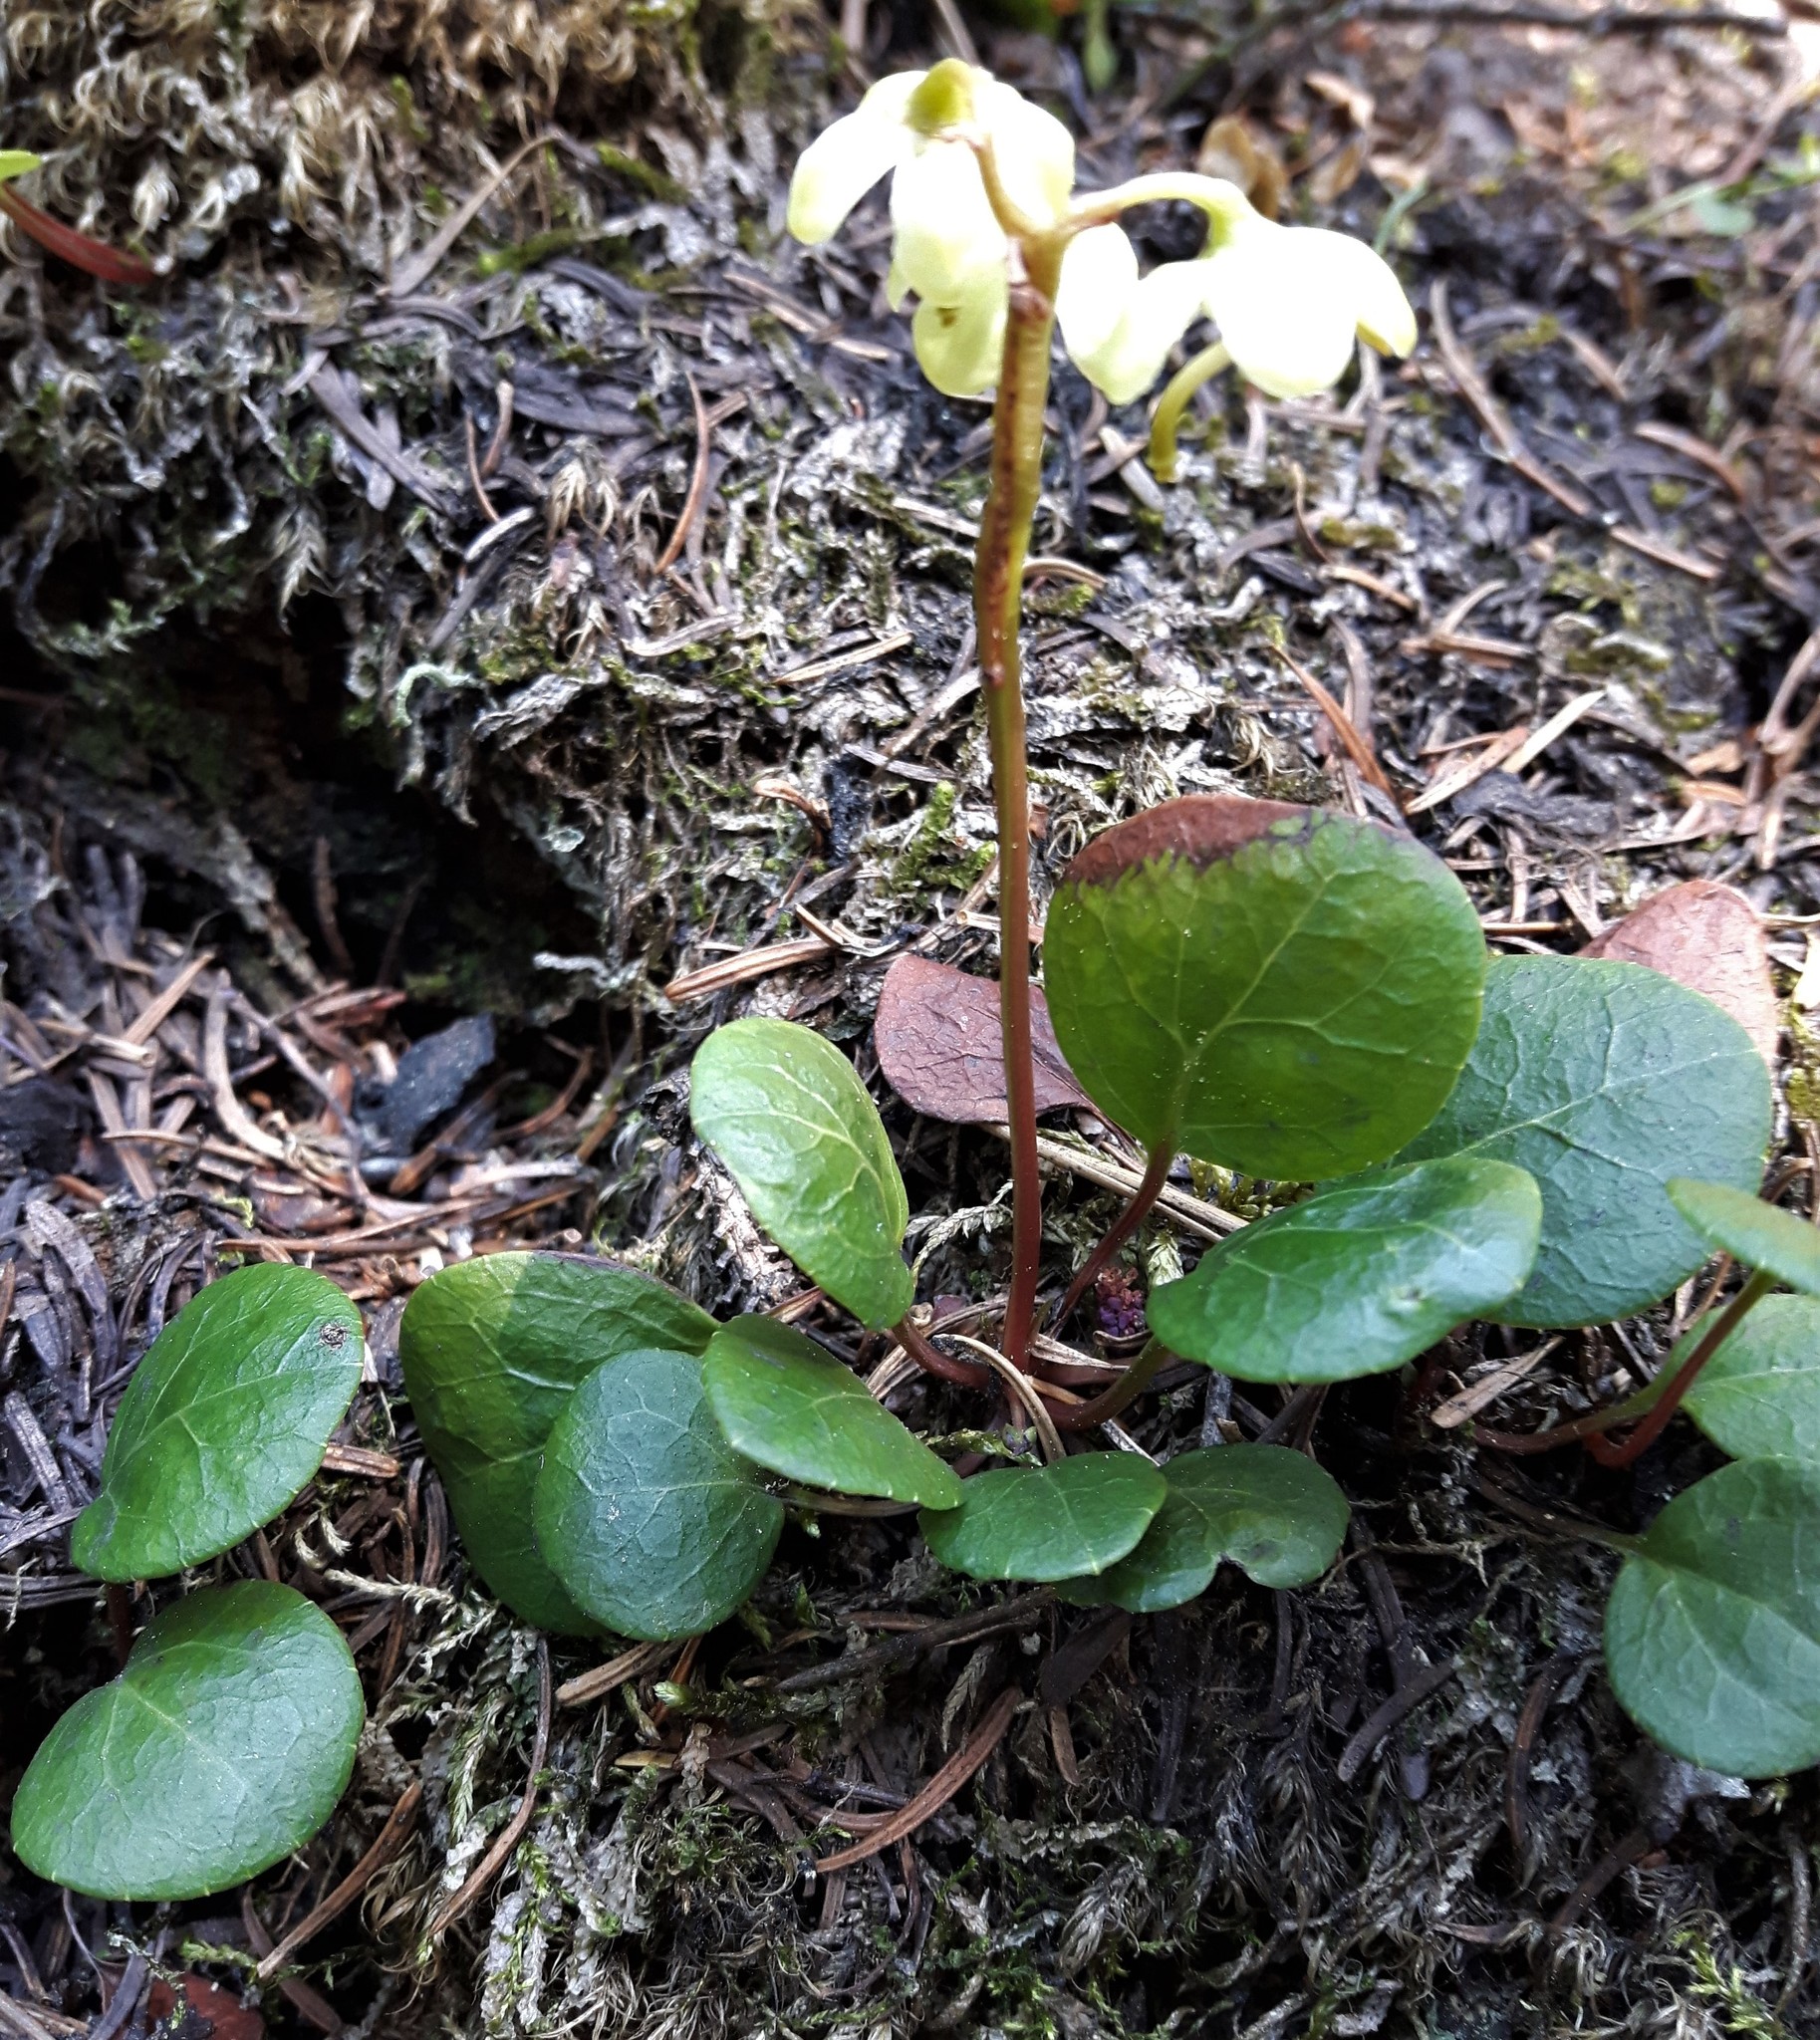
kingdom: Plantae
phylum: Tracheophyta
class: Magnoliopsida
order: Ericales
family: Ericaceae
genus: Pyrola
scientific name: Pyrola chlorantha
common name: Green wintergreen
